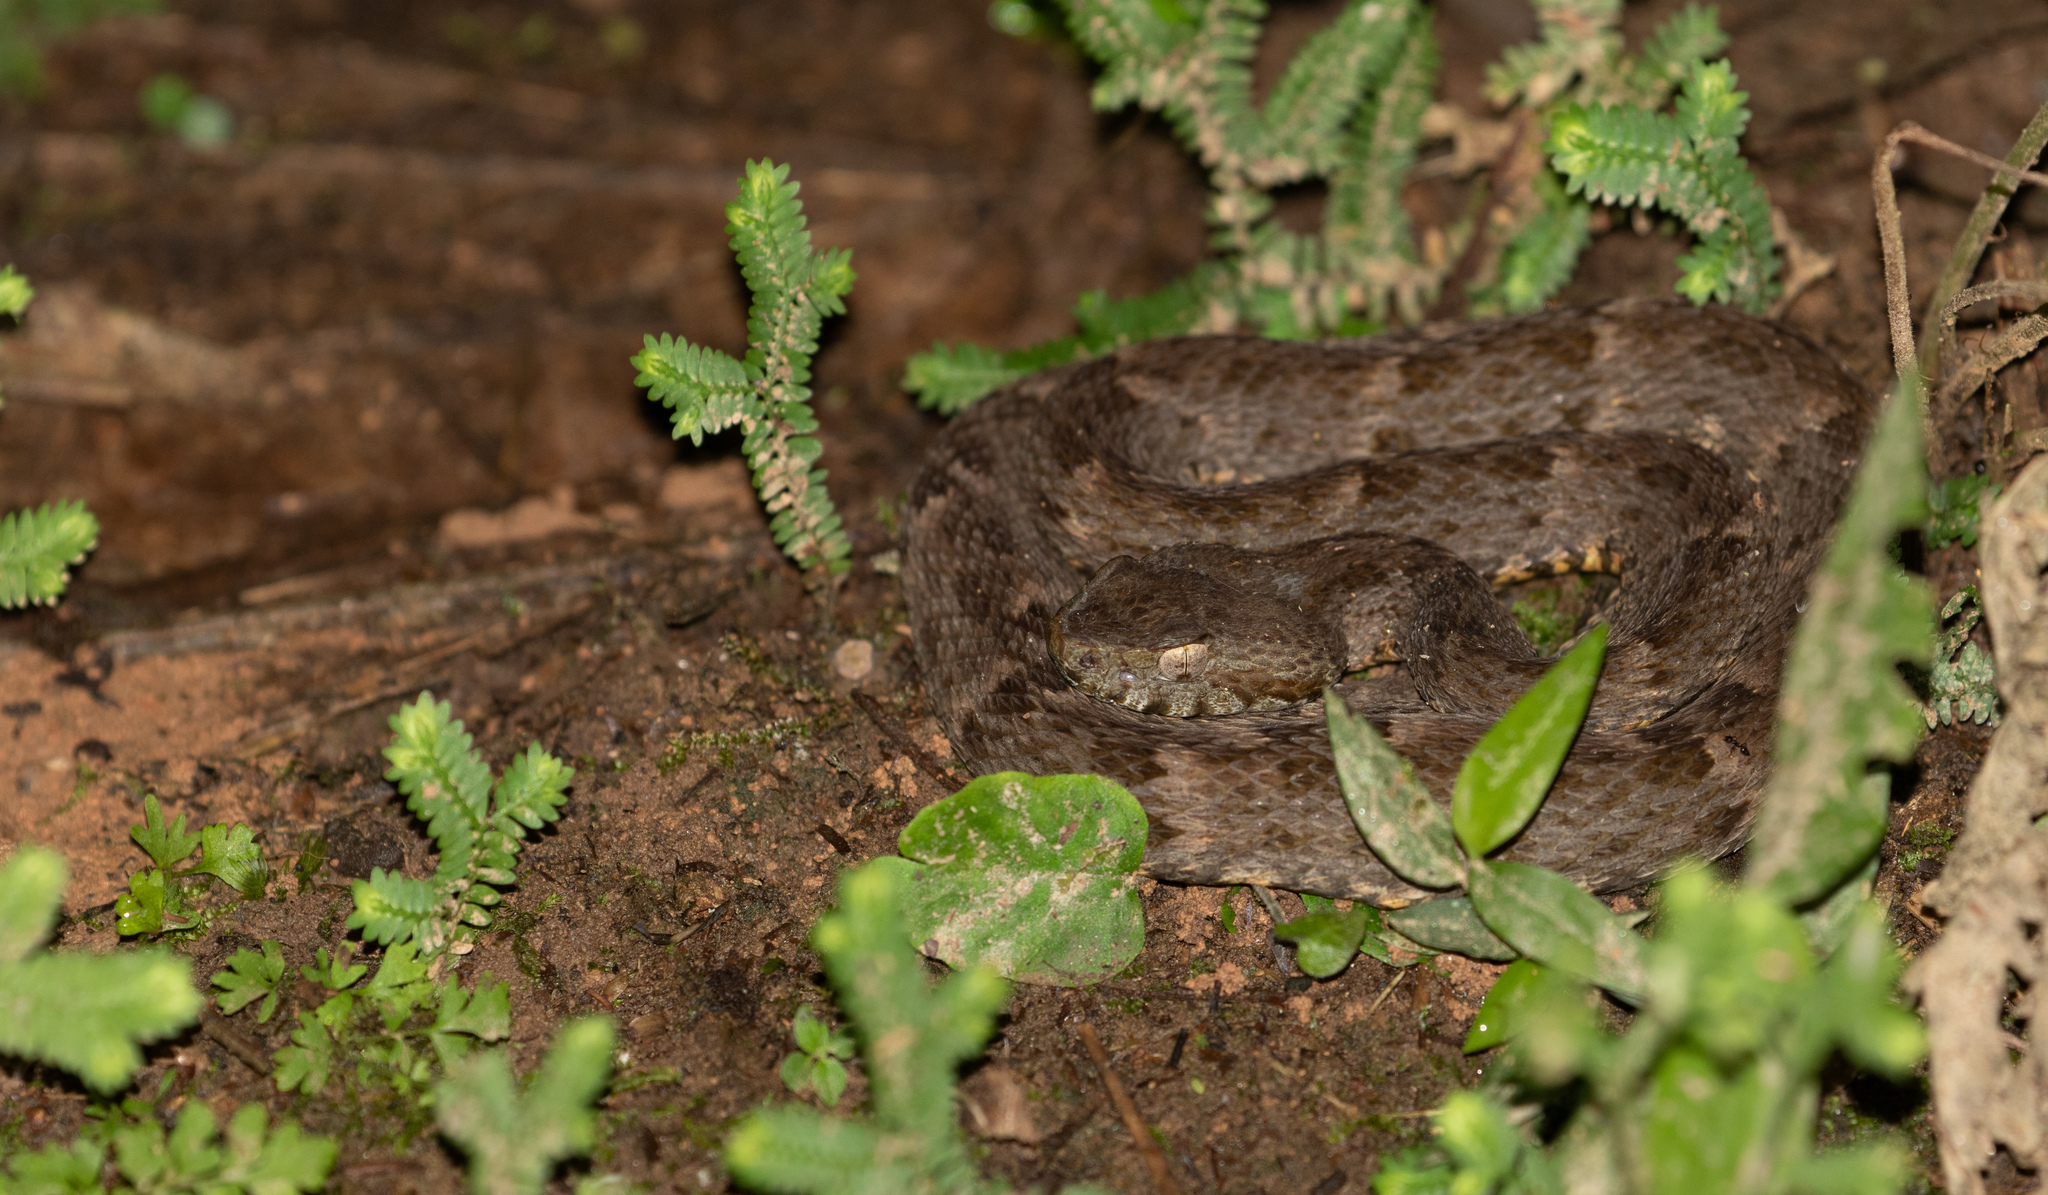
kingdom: Animalia
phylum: Chordata
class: Squamata
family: Viperidae
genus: Bothrops
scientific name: Bothrops atrox
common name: Common lancehead
